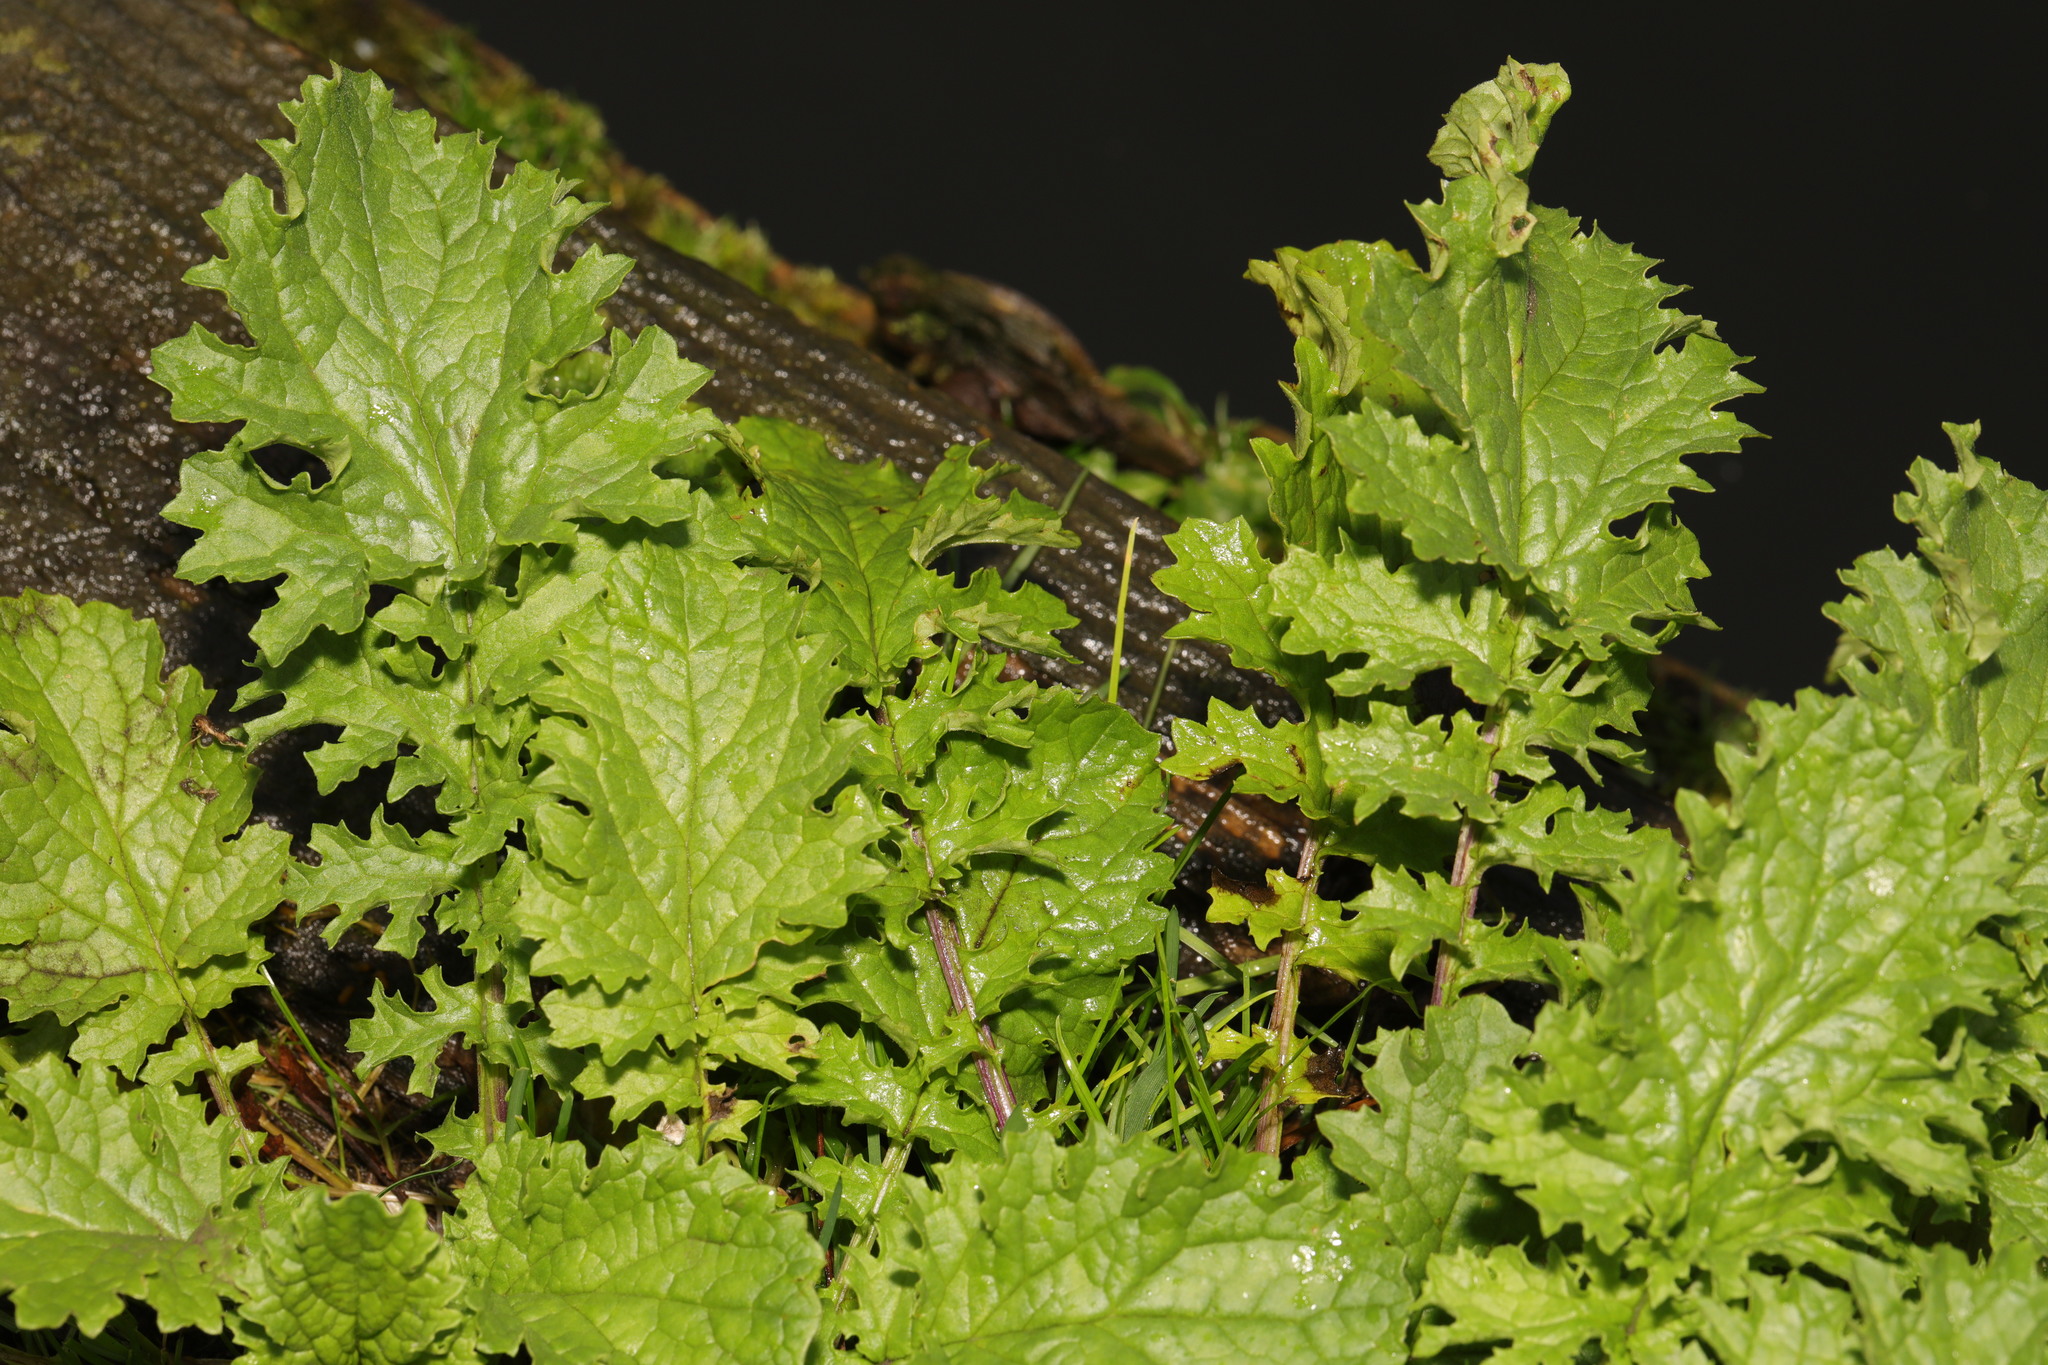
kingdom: Plantae
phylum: Tracheophyta
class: Magnoliopsida
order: Asterales
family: Asteraceae
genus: Jacobaea
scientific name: Jacobaea vulgaris
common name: Stinking willie
